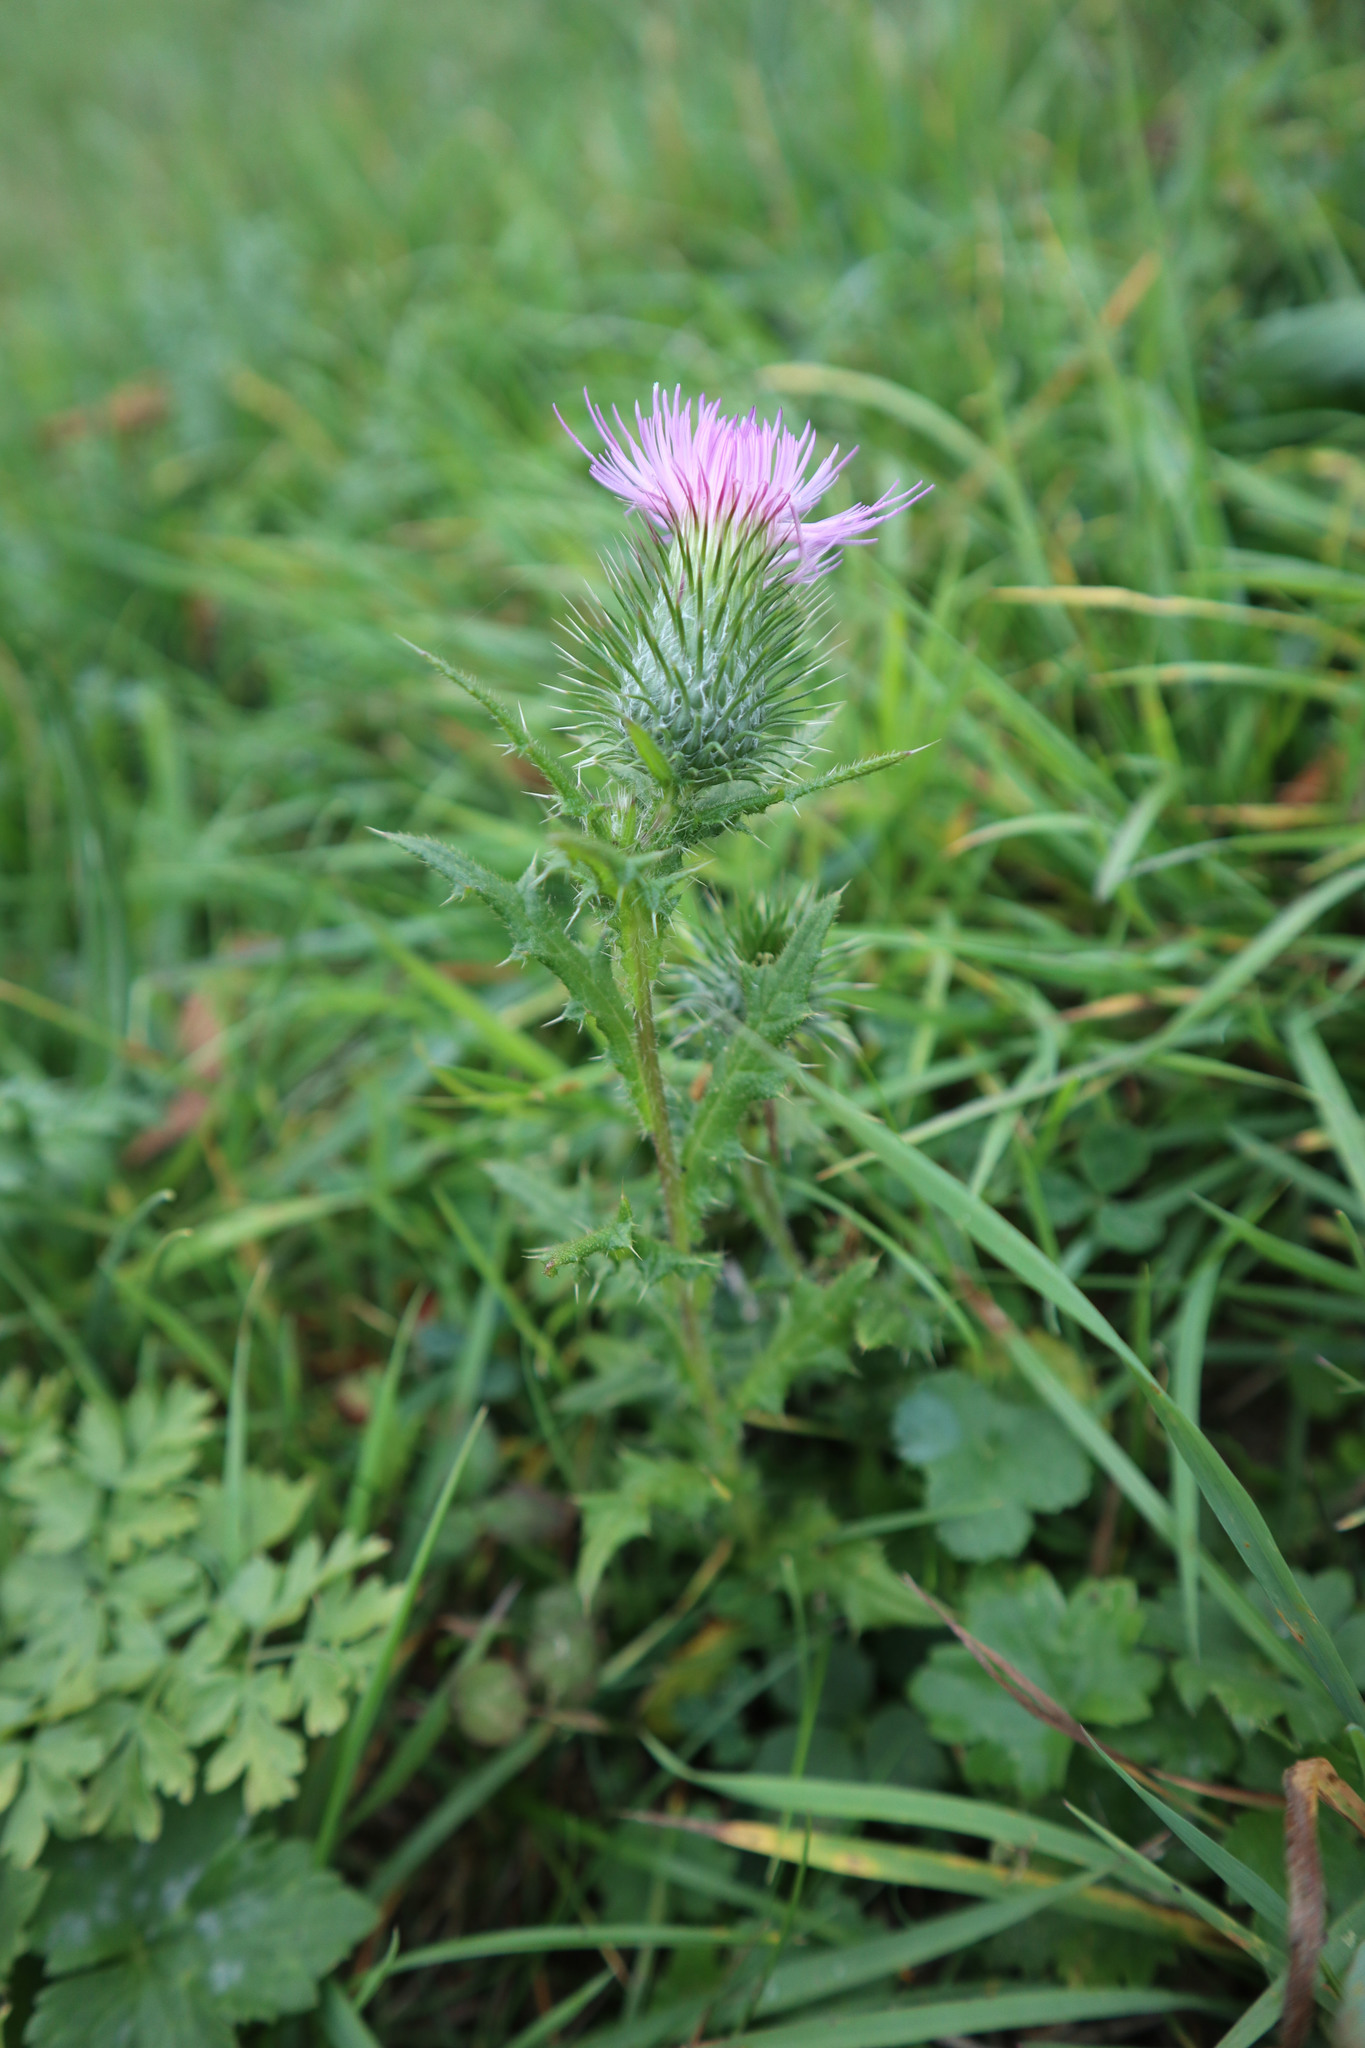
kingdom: Plantae
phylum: Tracheophyta
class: Magnoliopsida
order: Asterales
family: Asteraceae
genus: Cirsium
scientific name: Cirsium vulgare
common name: Bull thistle
